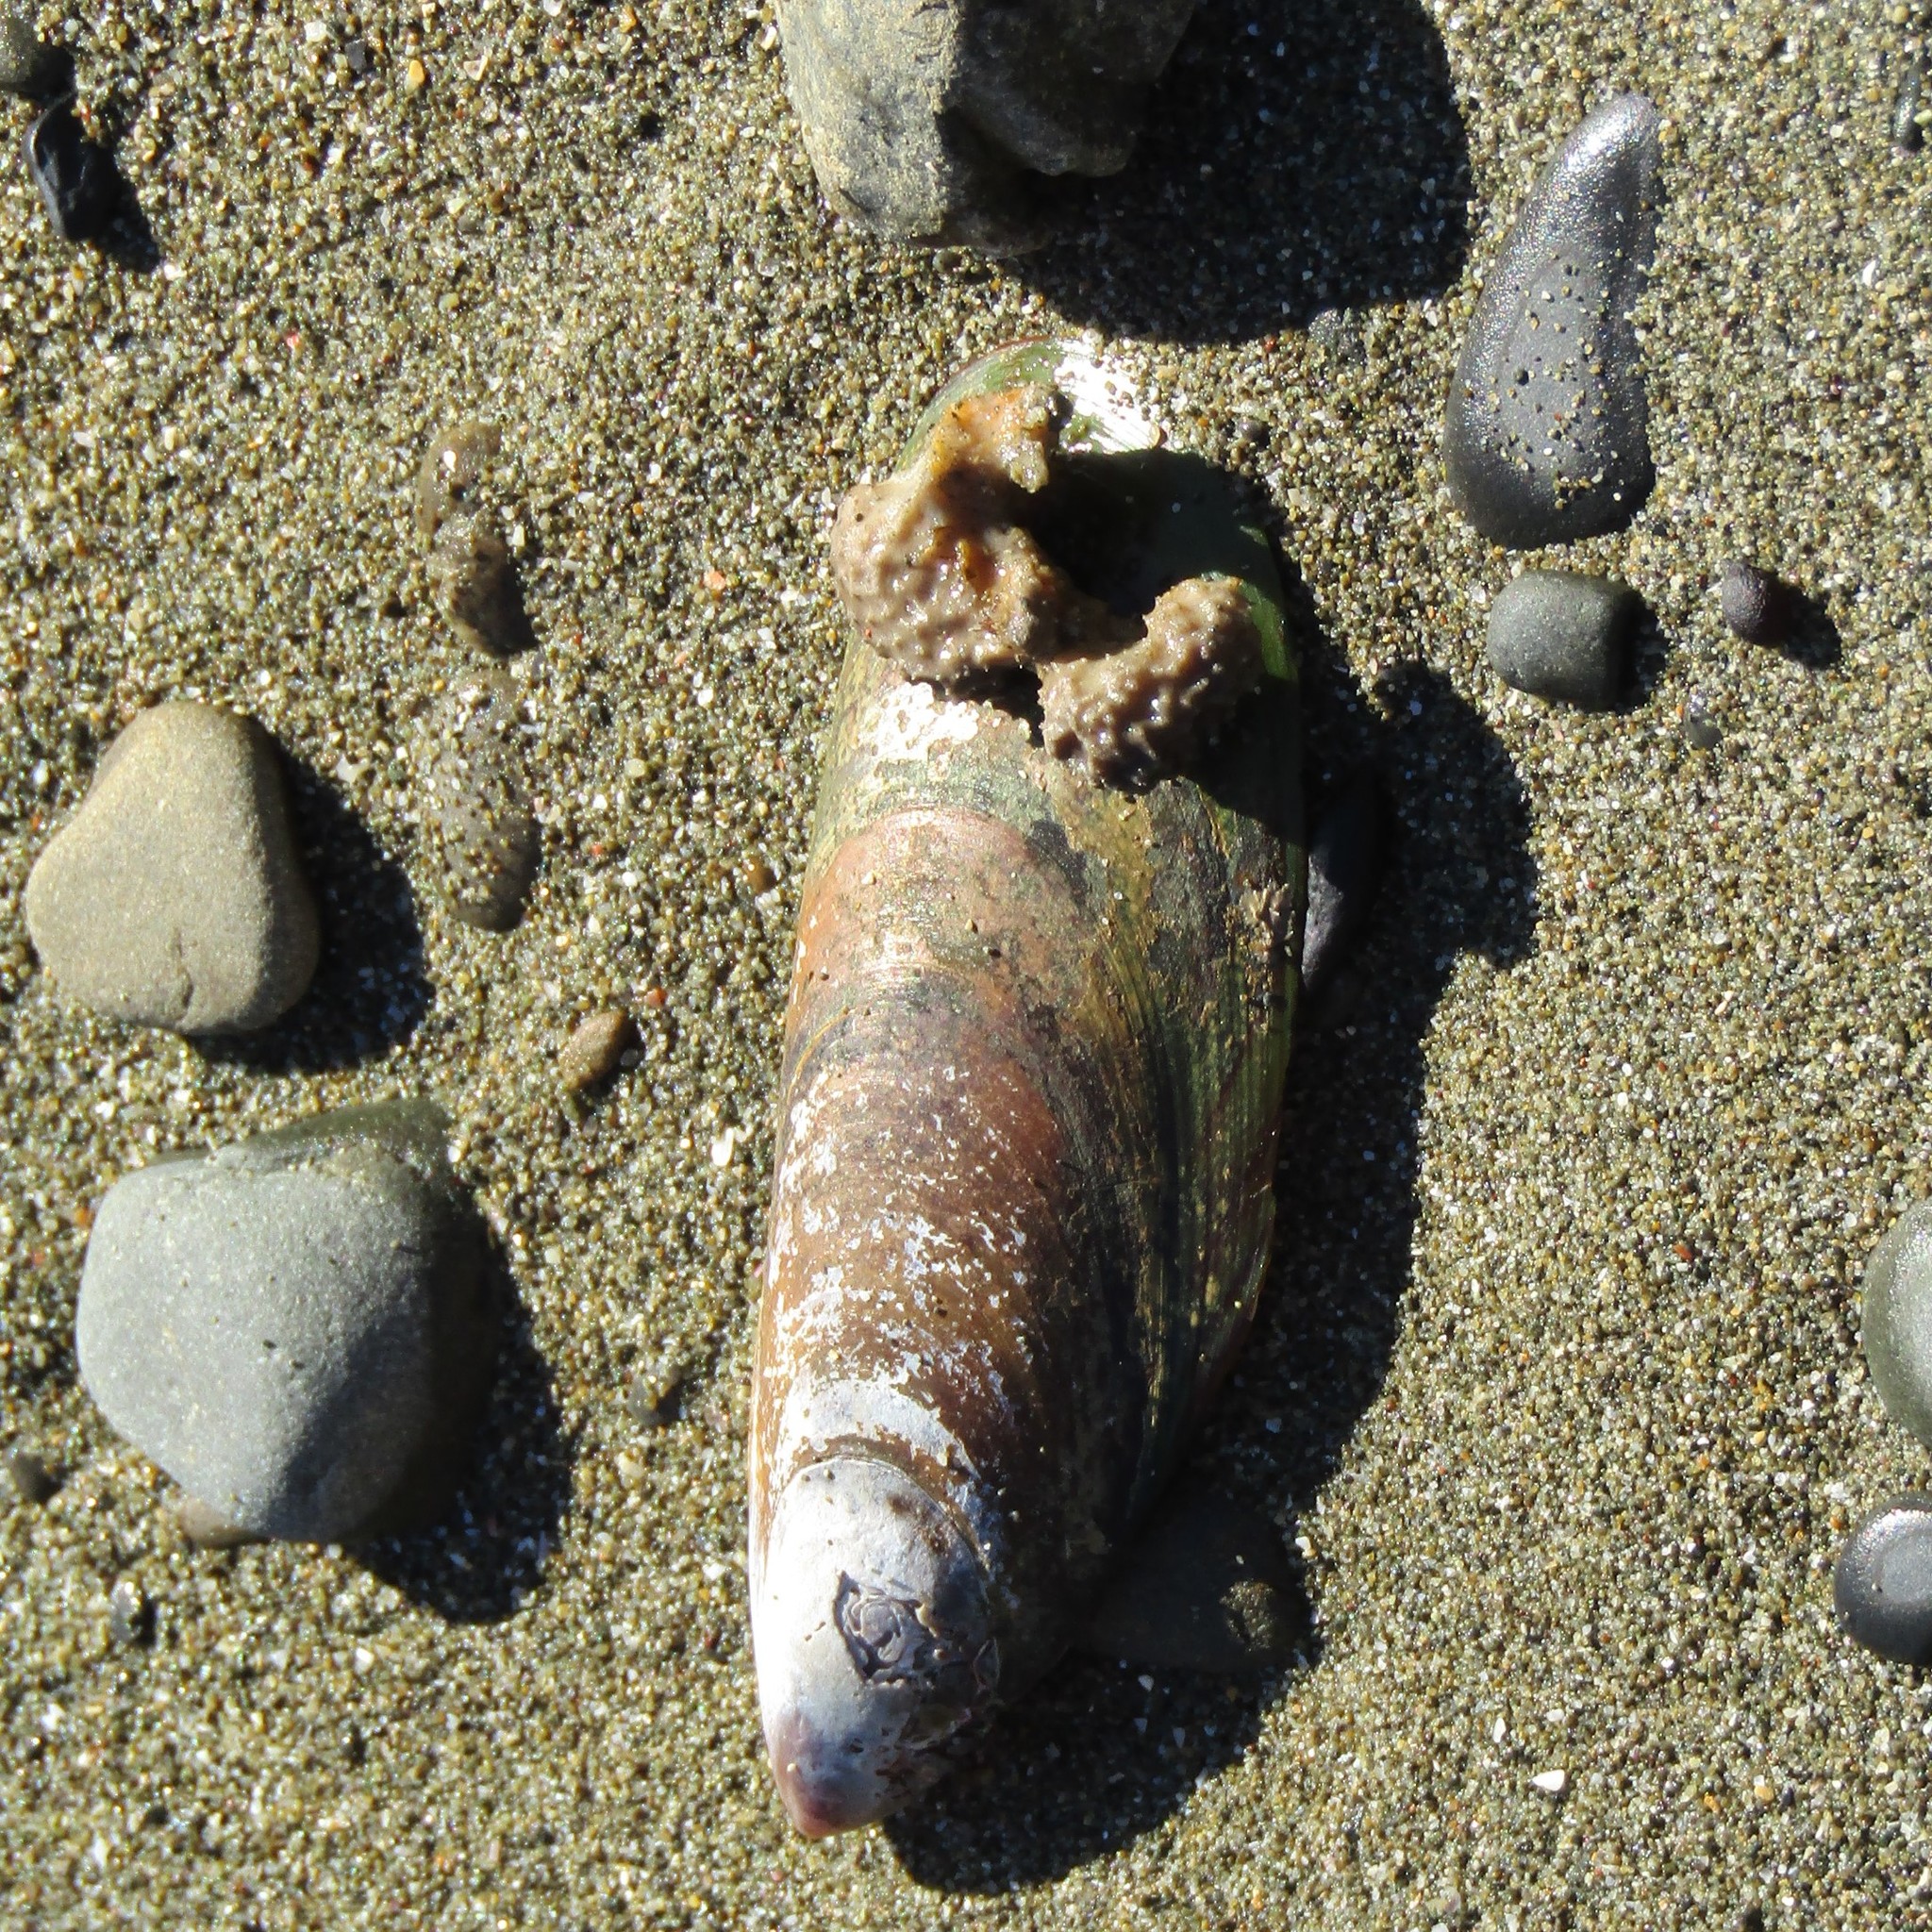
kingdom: Animalia
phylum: Mollusca
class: Bivalvia
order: Mytilida
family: Mytilidae
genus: Perna
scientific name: Perna canaliculus
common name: New zealand greenshelltm
